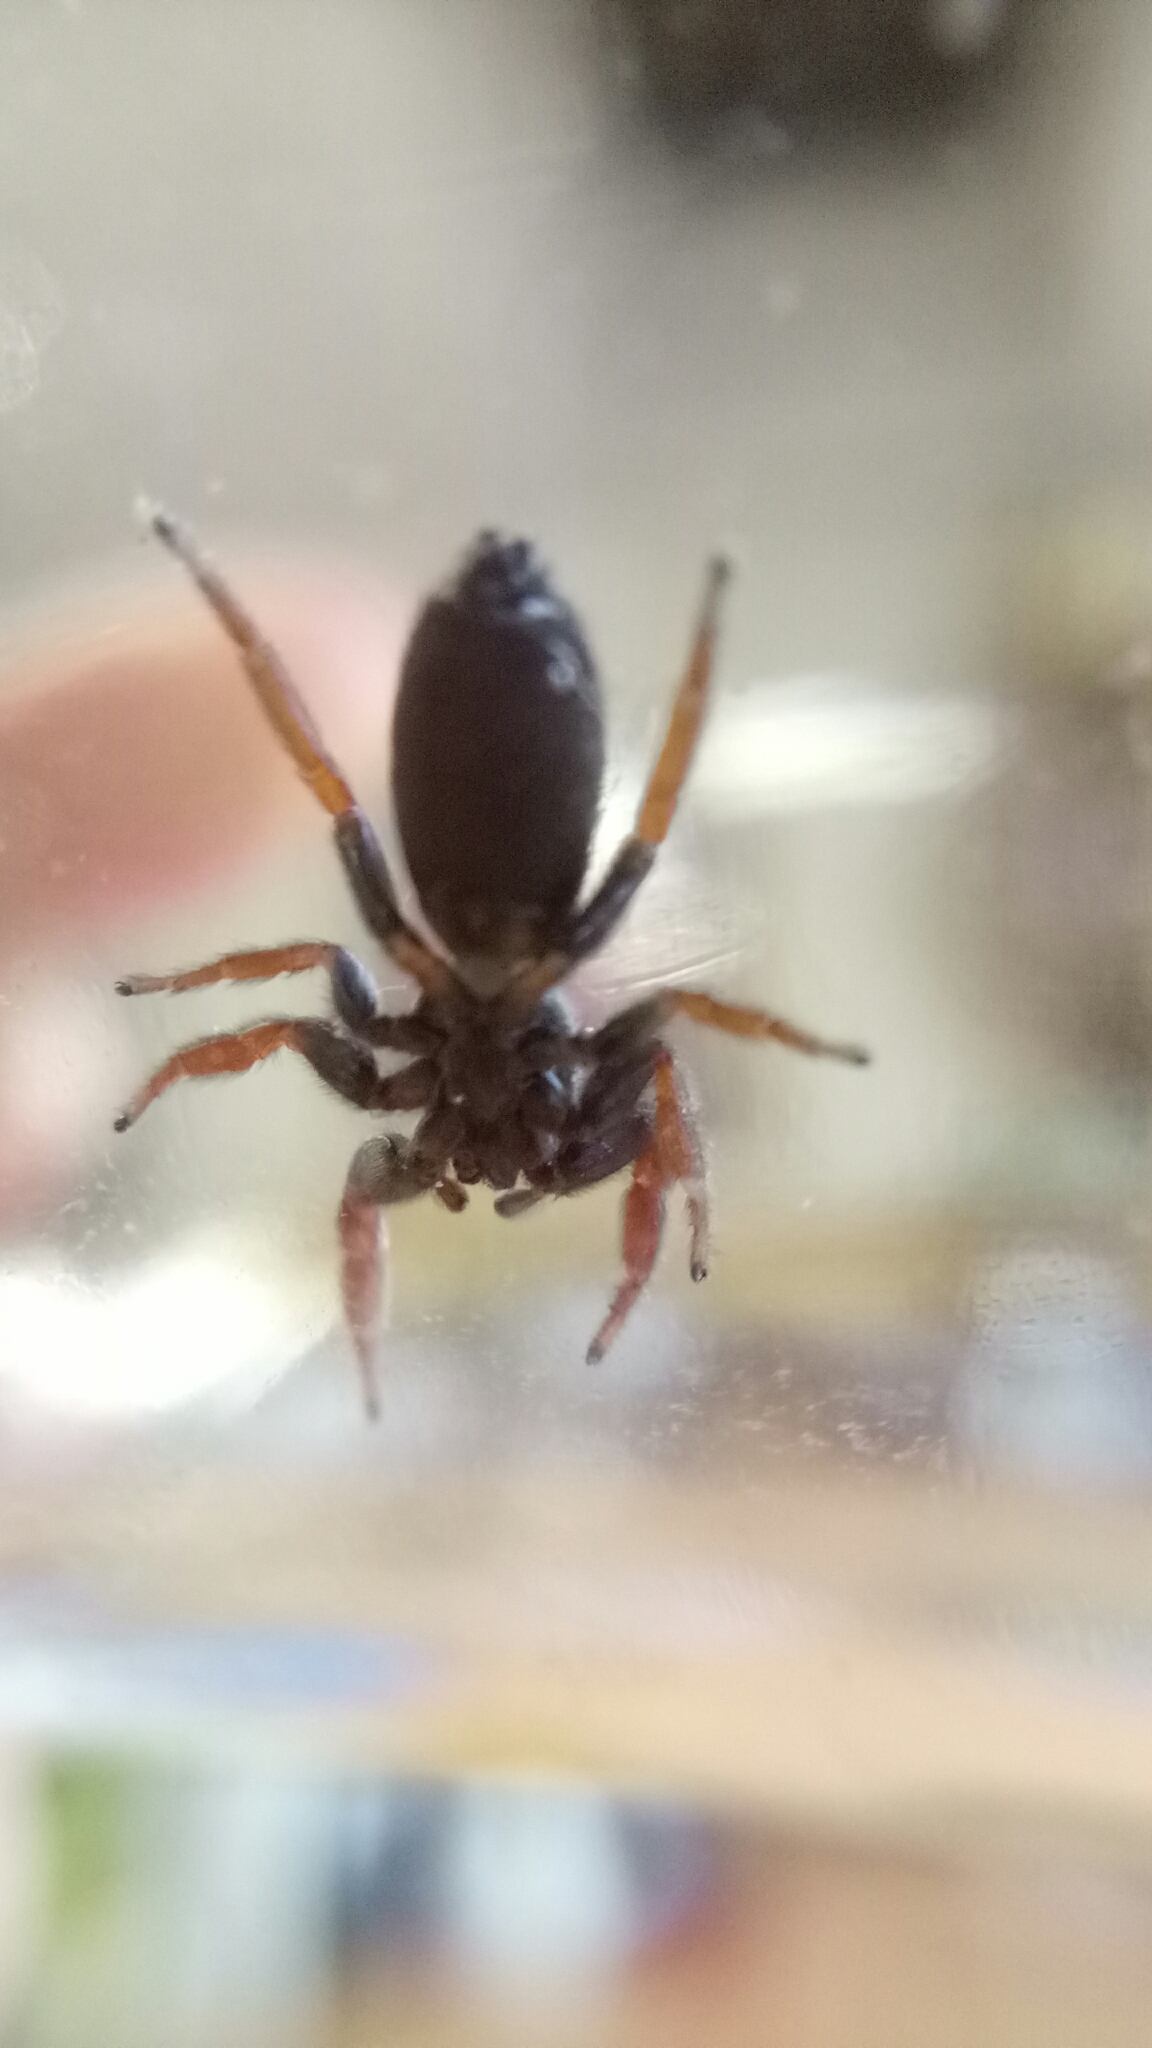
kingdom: Animalia
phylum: Arthropoda
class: Arachnida
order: Araneae
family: Salticidae
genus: Holoplatys
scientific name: Holoplatys invenusta
